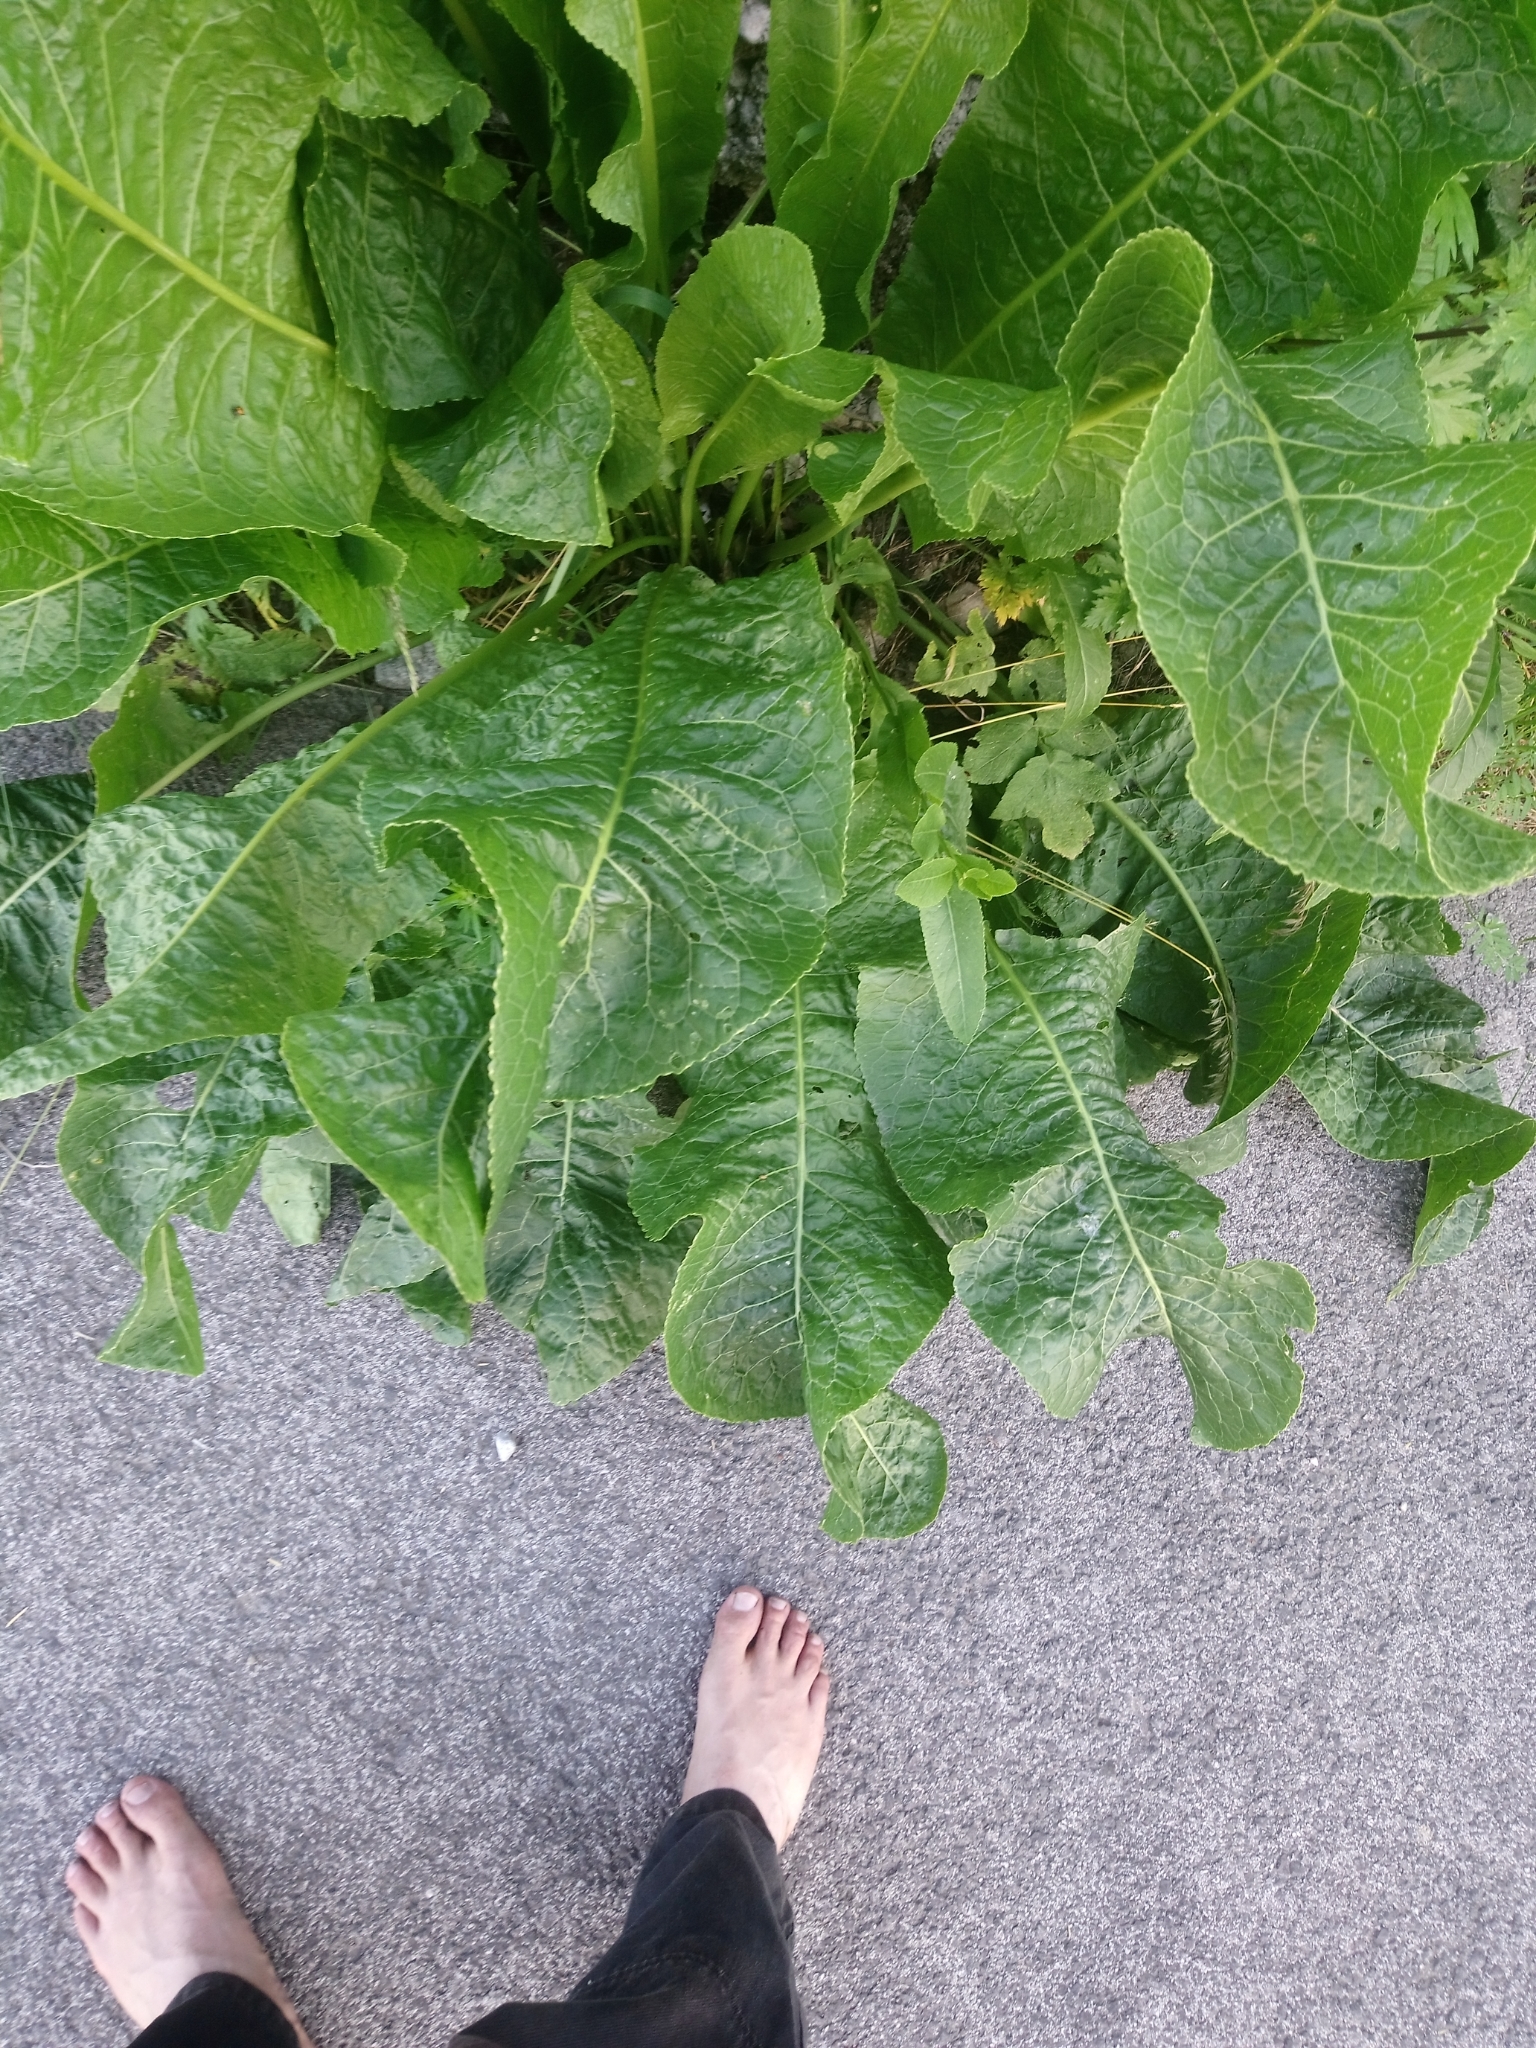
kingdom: Plantae
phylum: Tracheophyta
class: Magnoliopsida
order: Brassicales
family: Brassicaceae
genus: Armoracia
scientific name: Armoracia rusticana
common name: Horseradish
